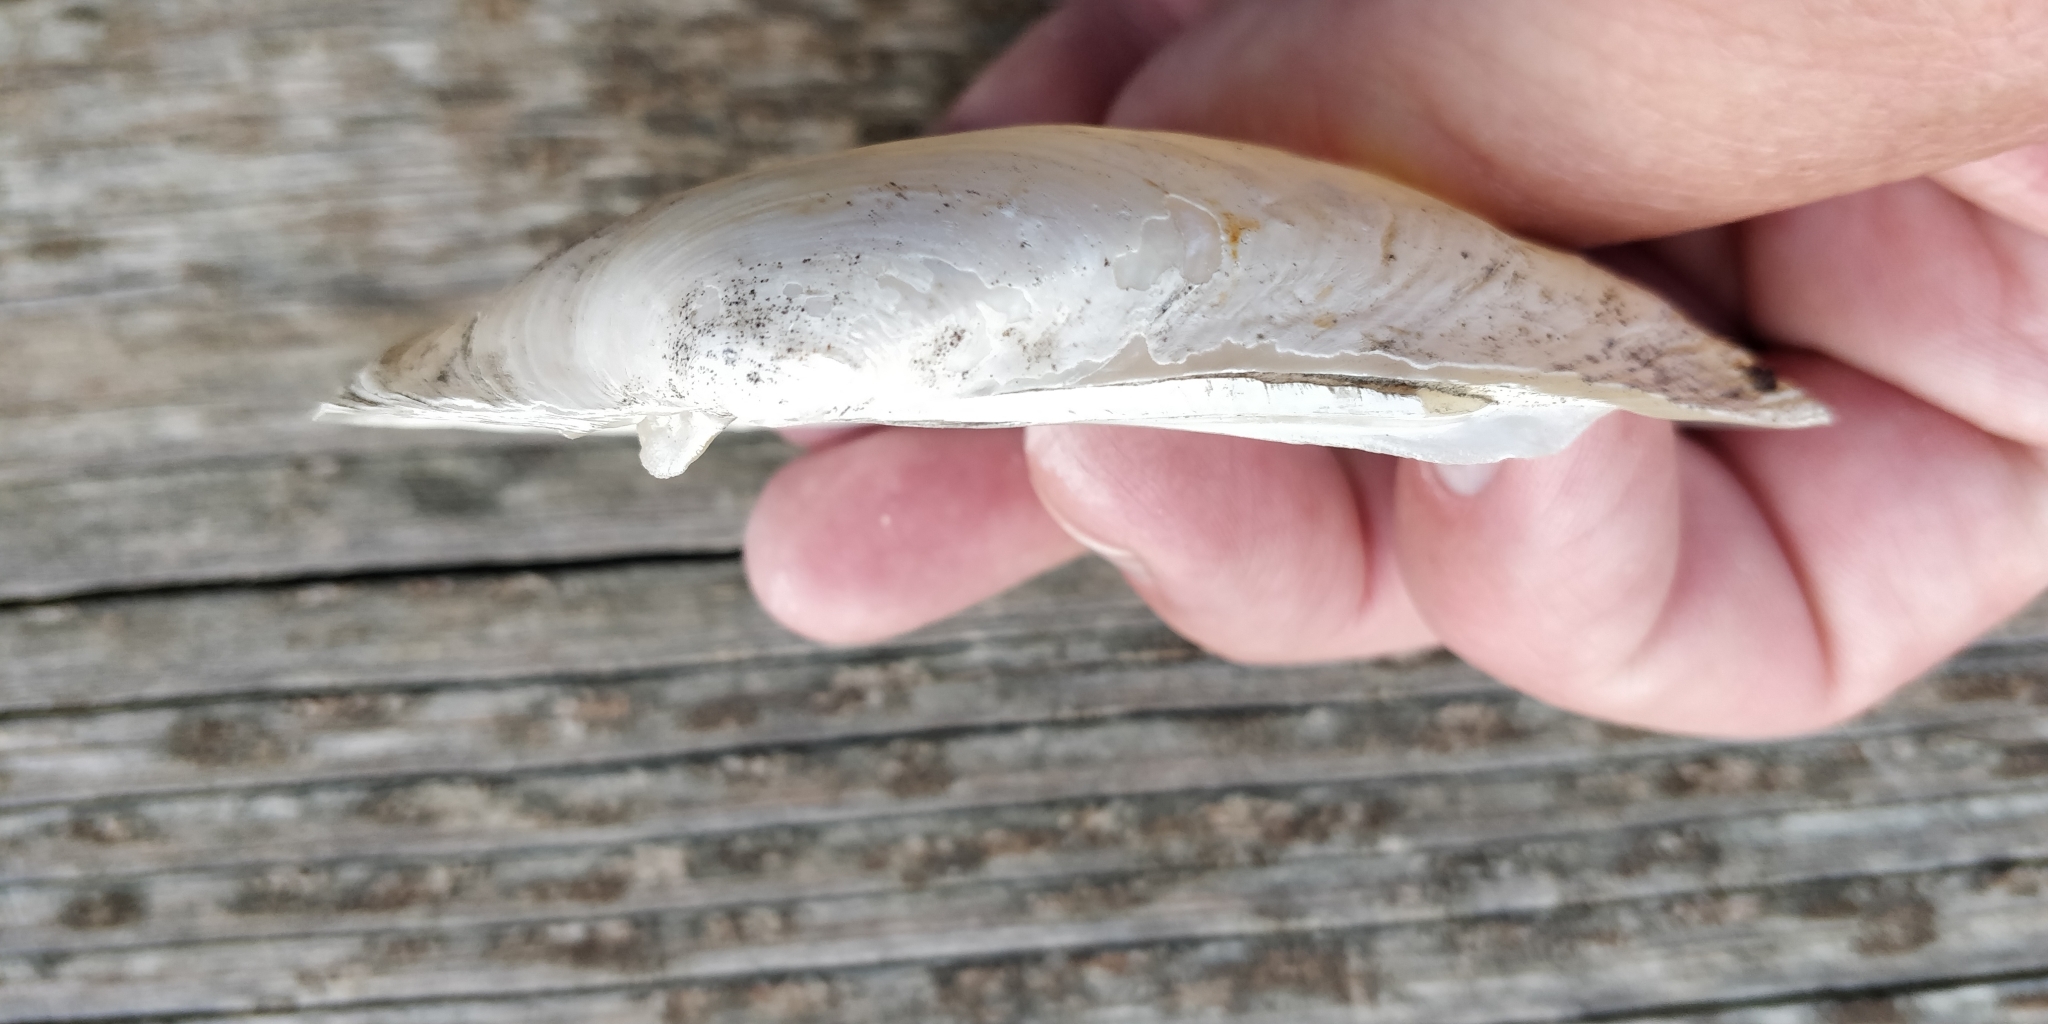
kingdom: Animalia
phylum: Mollusca
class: Bivalvia
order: Unionida
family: Unionidae
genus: Lampsilis
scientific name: Lampsilis siliquoidea
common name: Fatmucket
